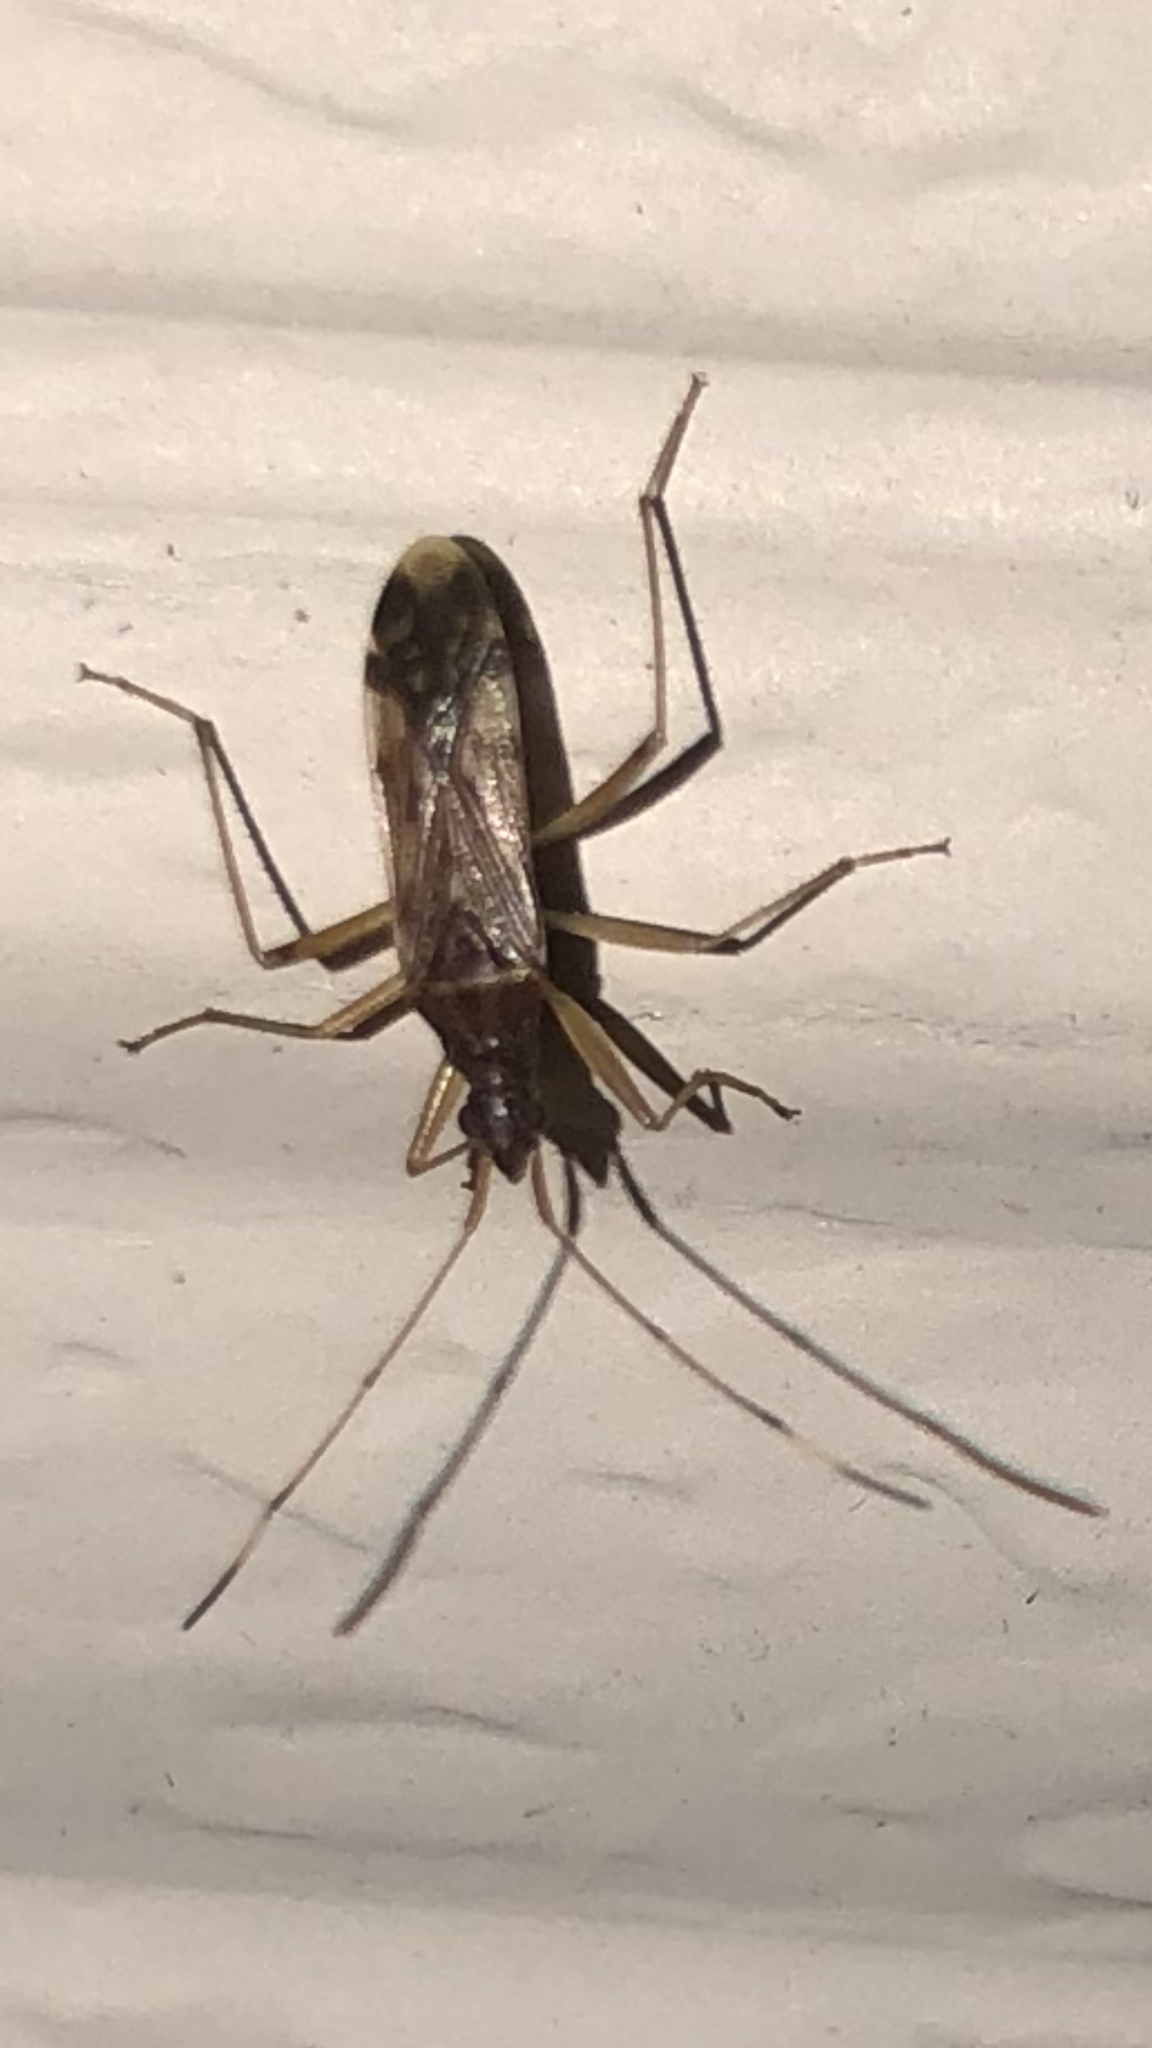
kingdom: Animalia
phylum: Arthropoda
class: Insecta
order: Hemiptera
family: Rhyparochromidae
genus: Ozophora
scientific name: Ozophora depicturata
